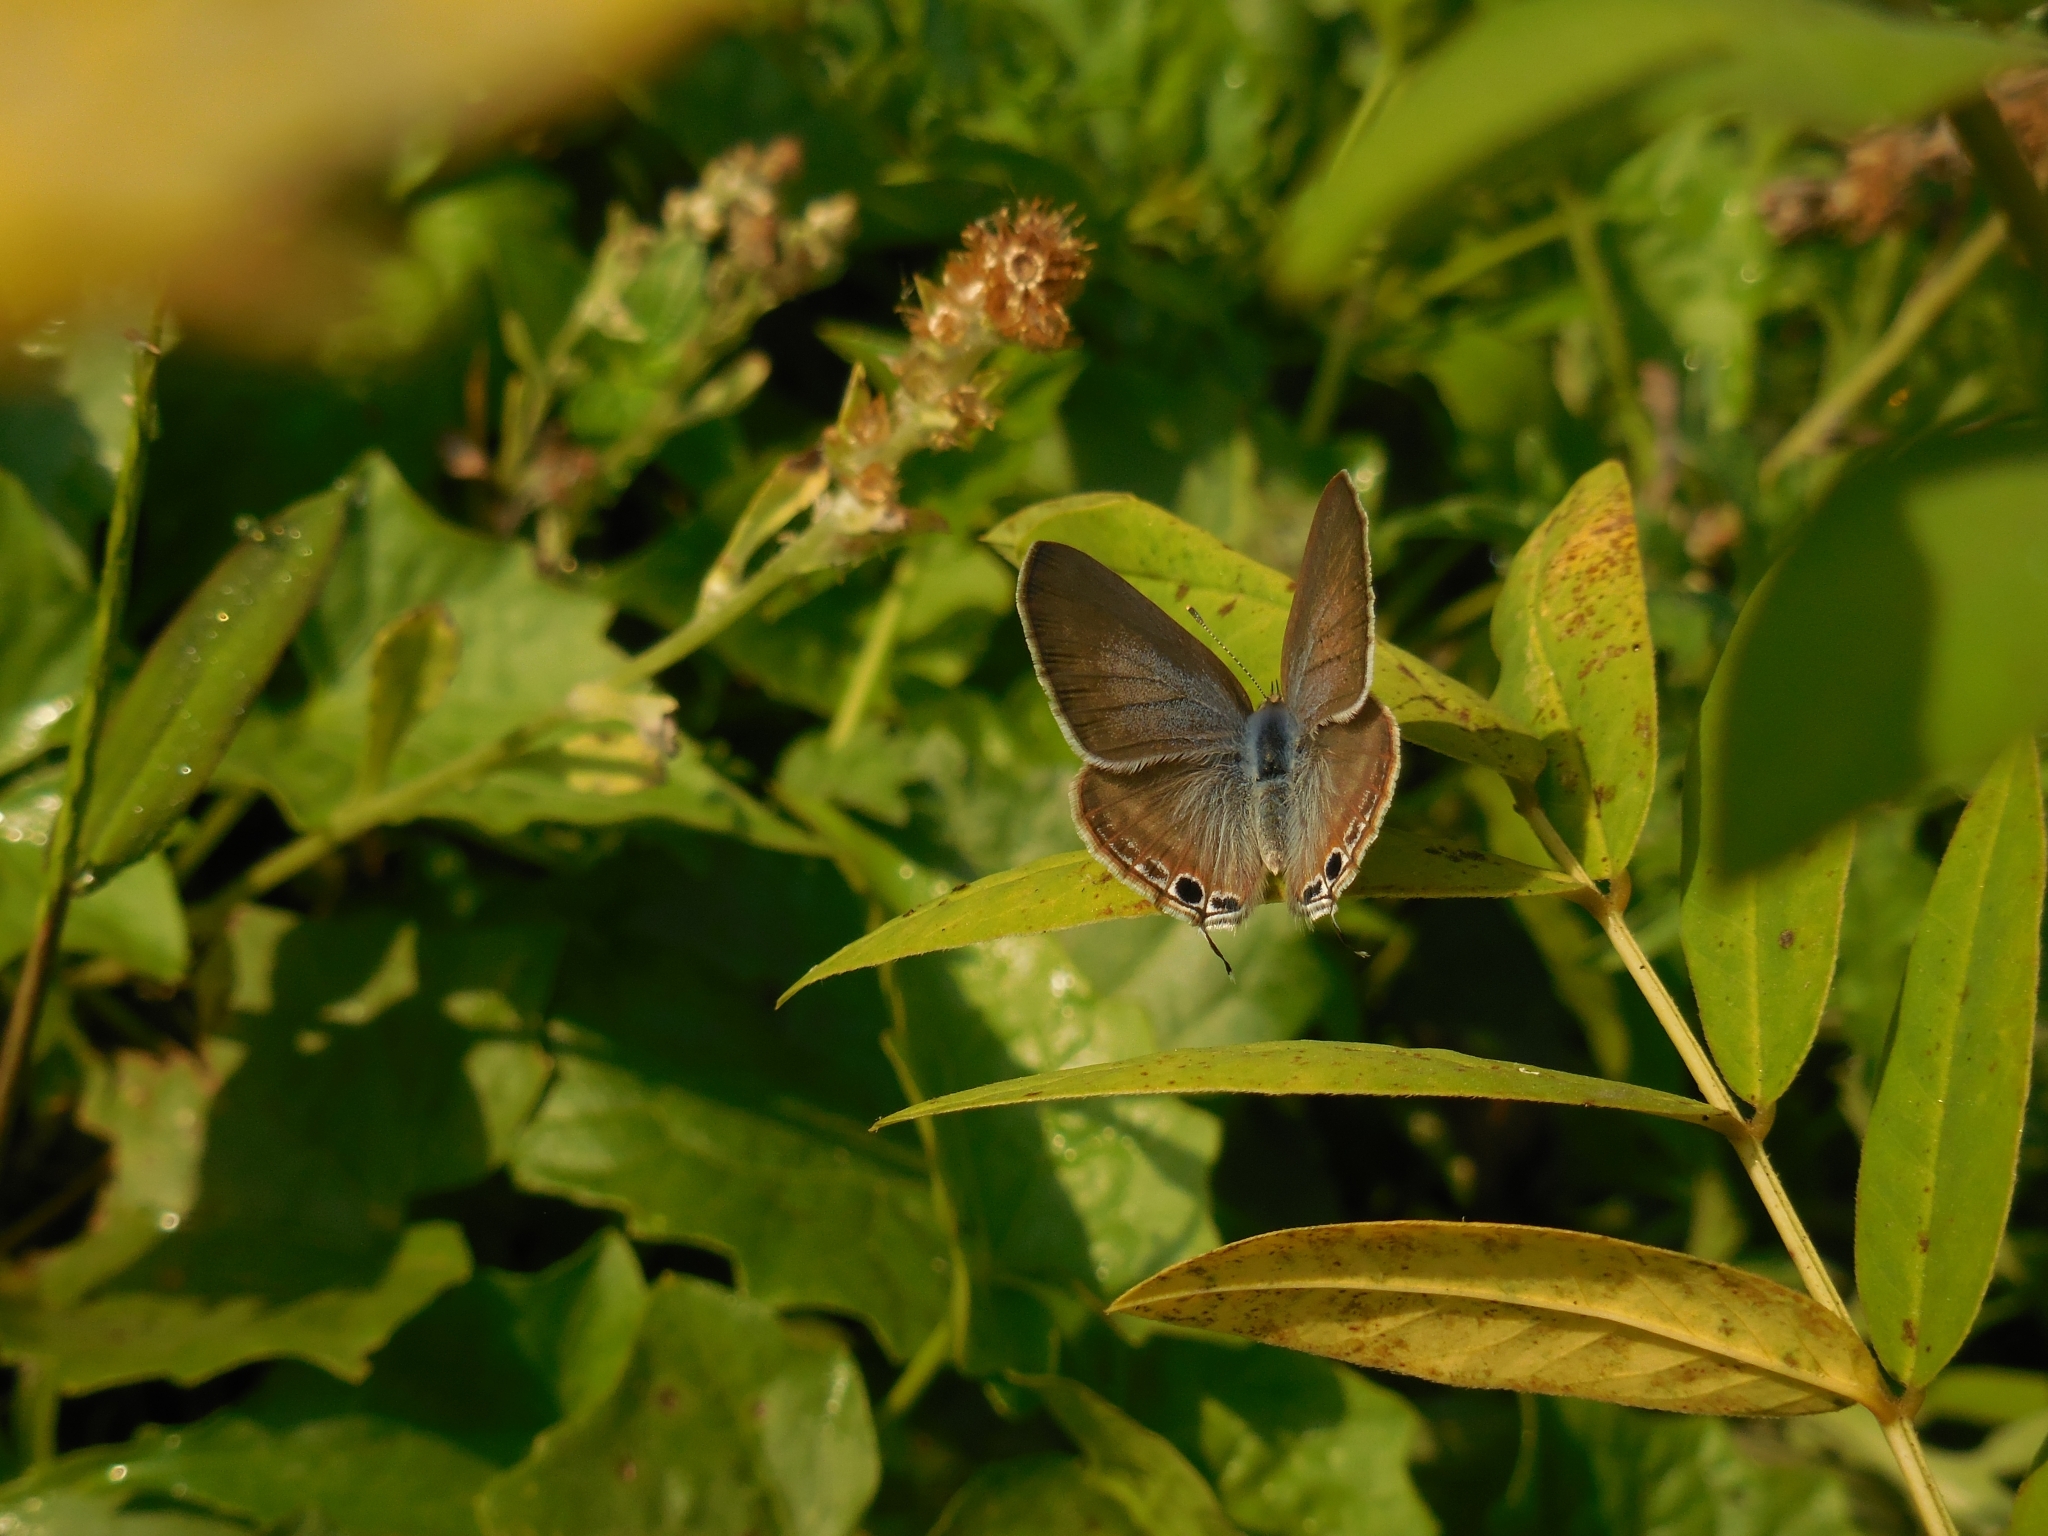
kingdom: Animalia
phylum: Arthropoda
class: Insecta
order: Lepidoptera
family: Lycaenidae
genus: Lampides
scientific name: Lampides boeticus
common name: Long-tailed blue
